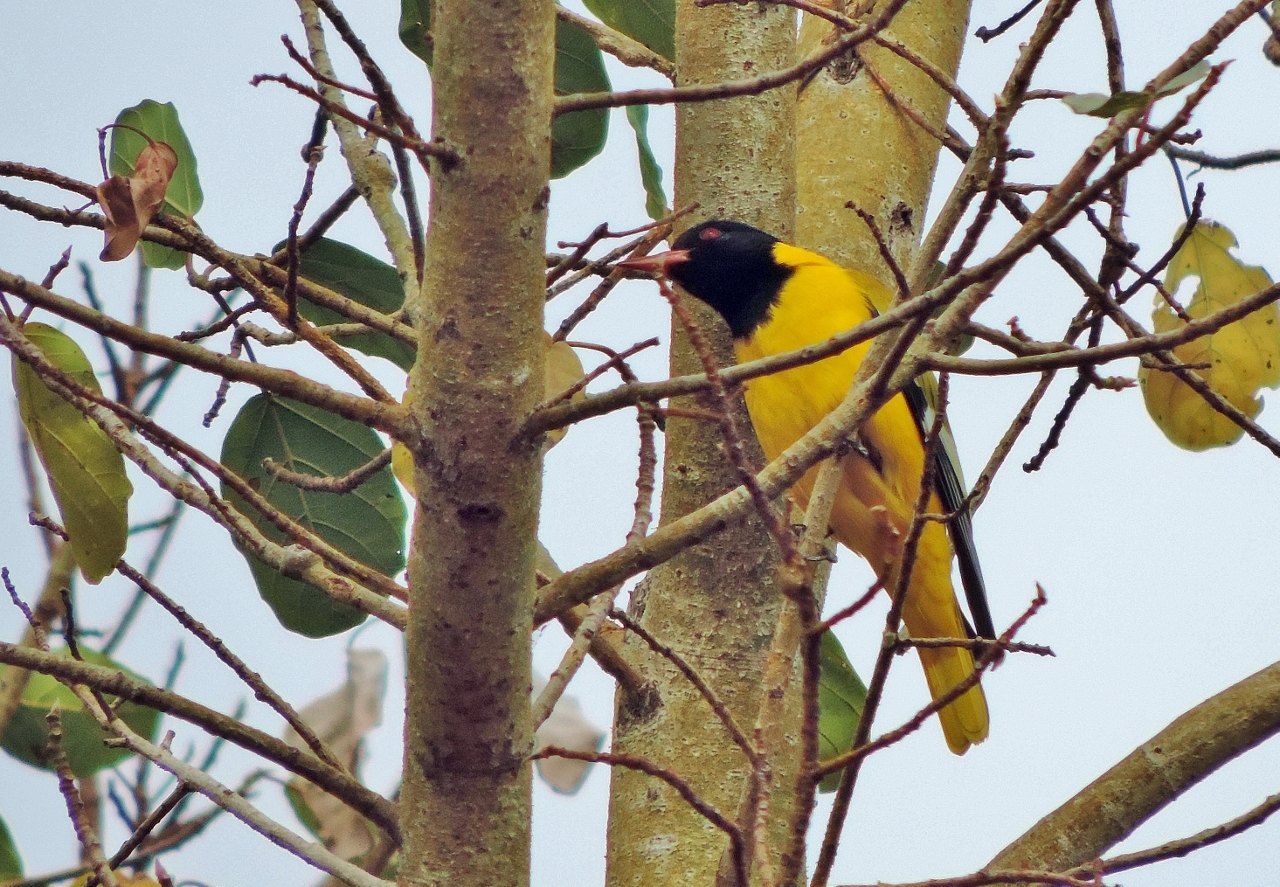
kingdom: Animalia
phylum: Chordata
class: Aves
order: Passeriformes
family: Oriolidae
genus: Oriolus
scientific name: Oriolus larvatus
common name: Black-headed oriole
